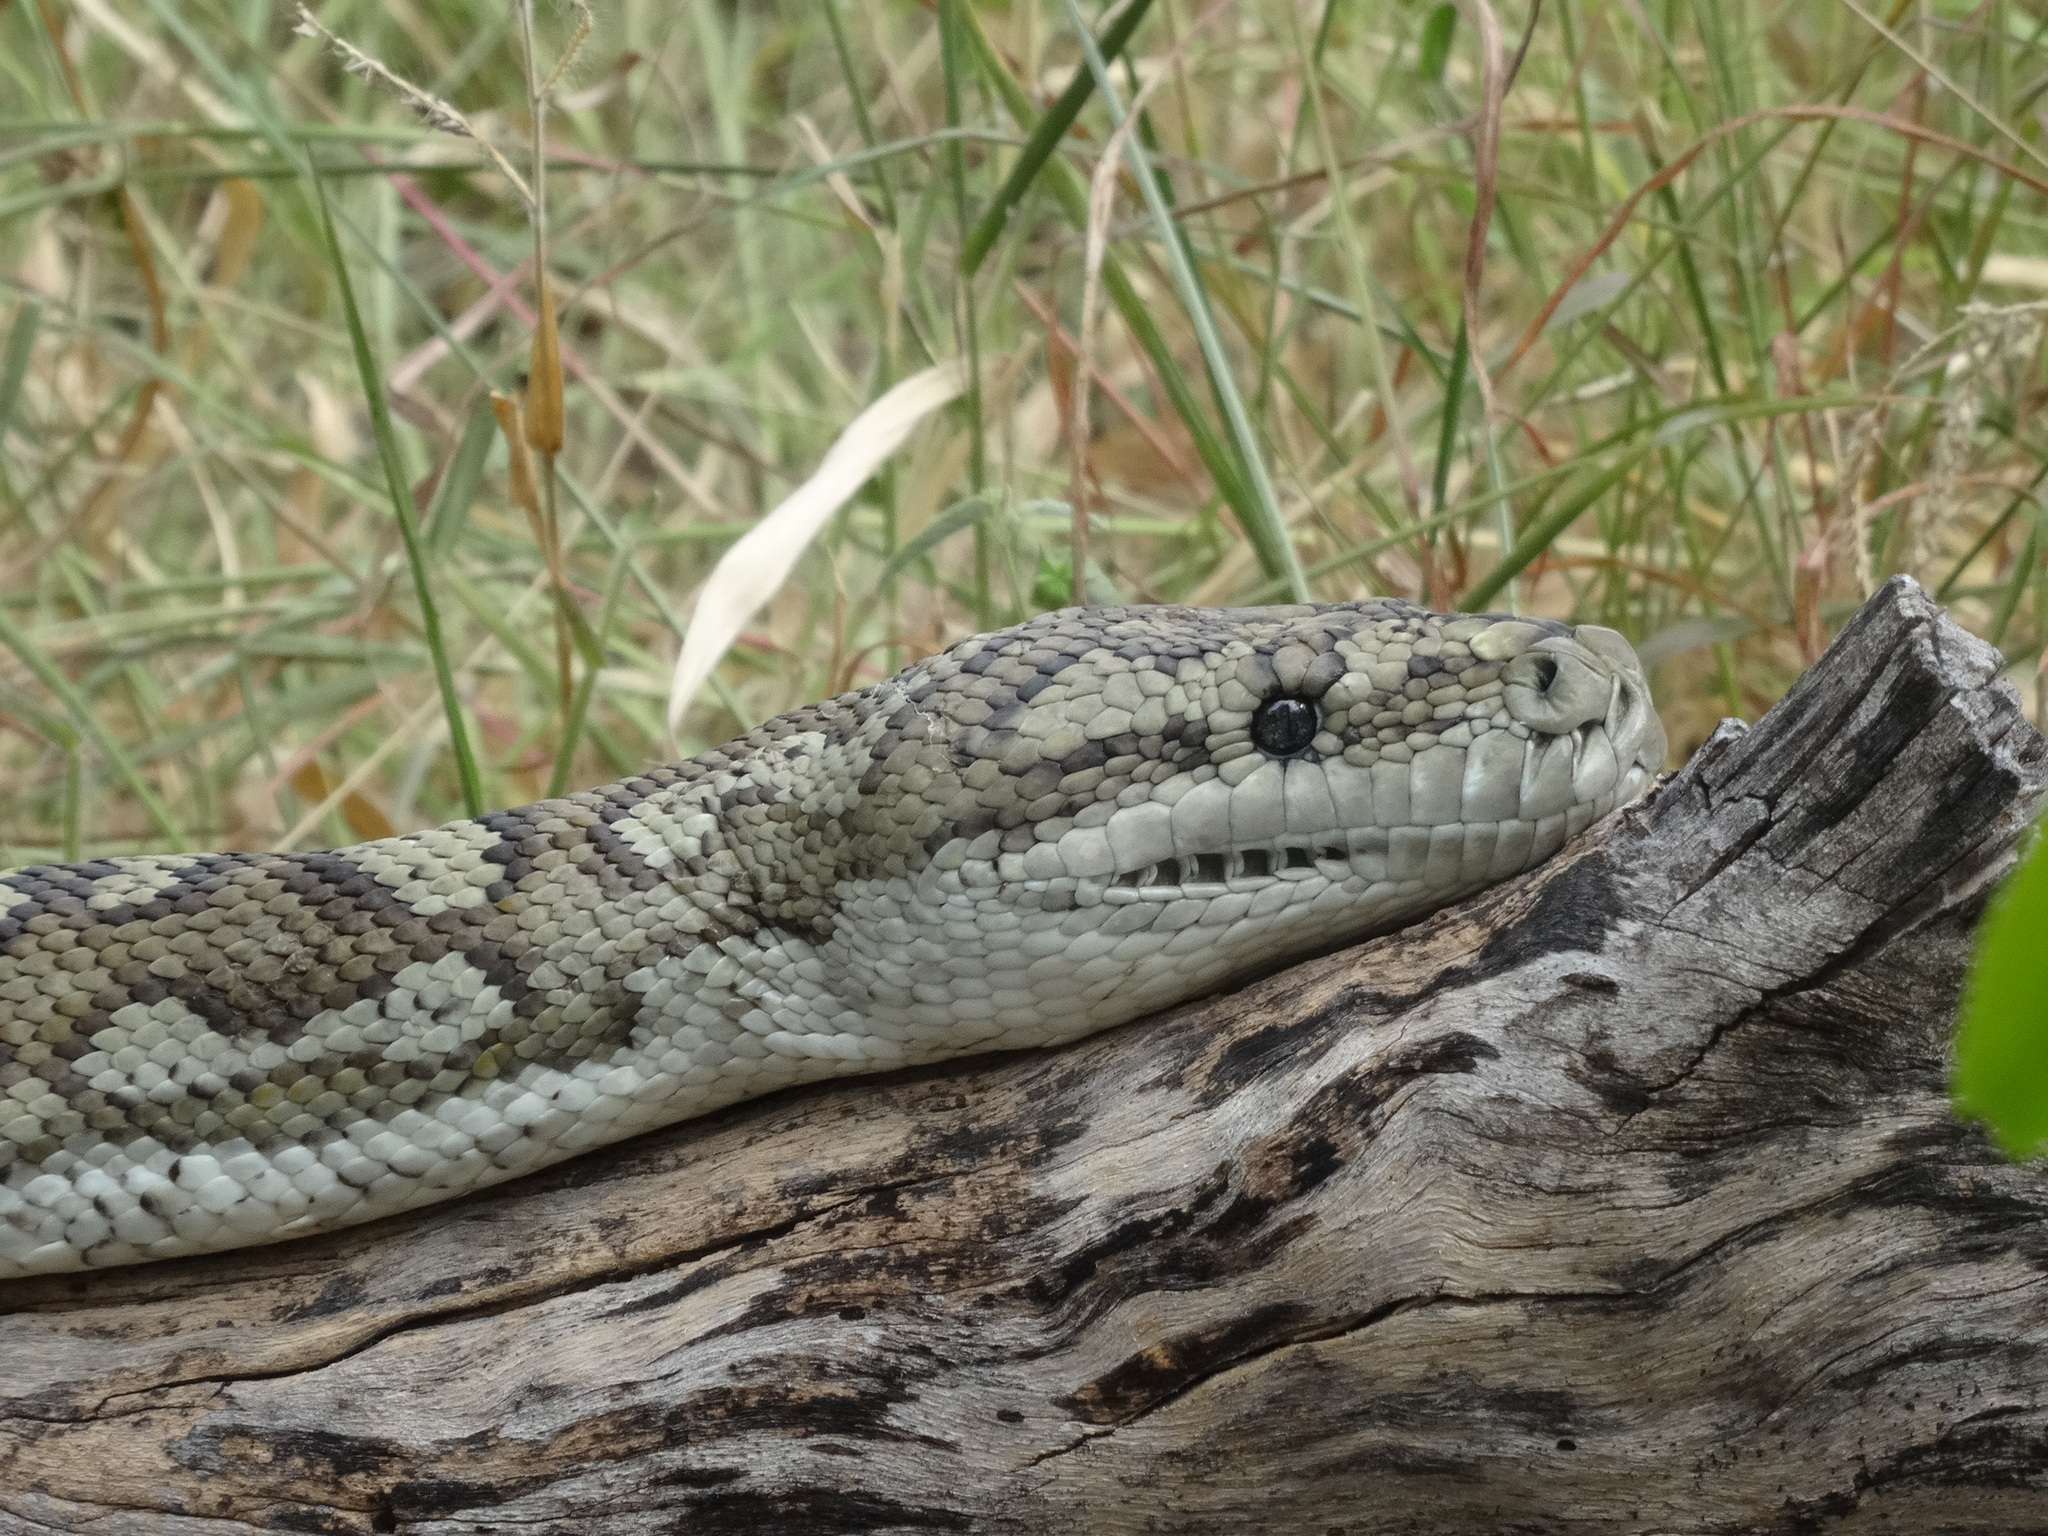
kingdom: Animalia
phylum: Chordata
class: Squamata
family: Pythonidae
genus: Morelia
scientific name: Morelia spilota
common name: Carpet python
